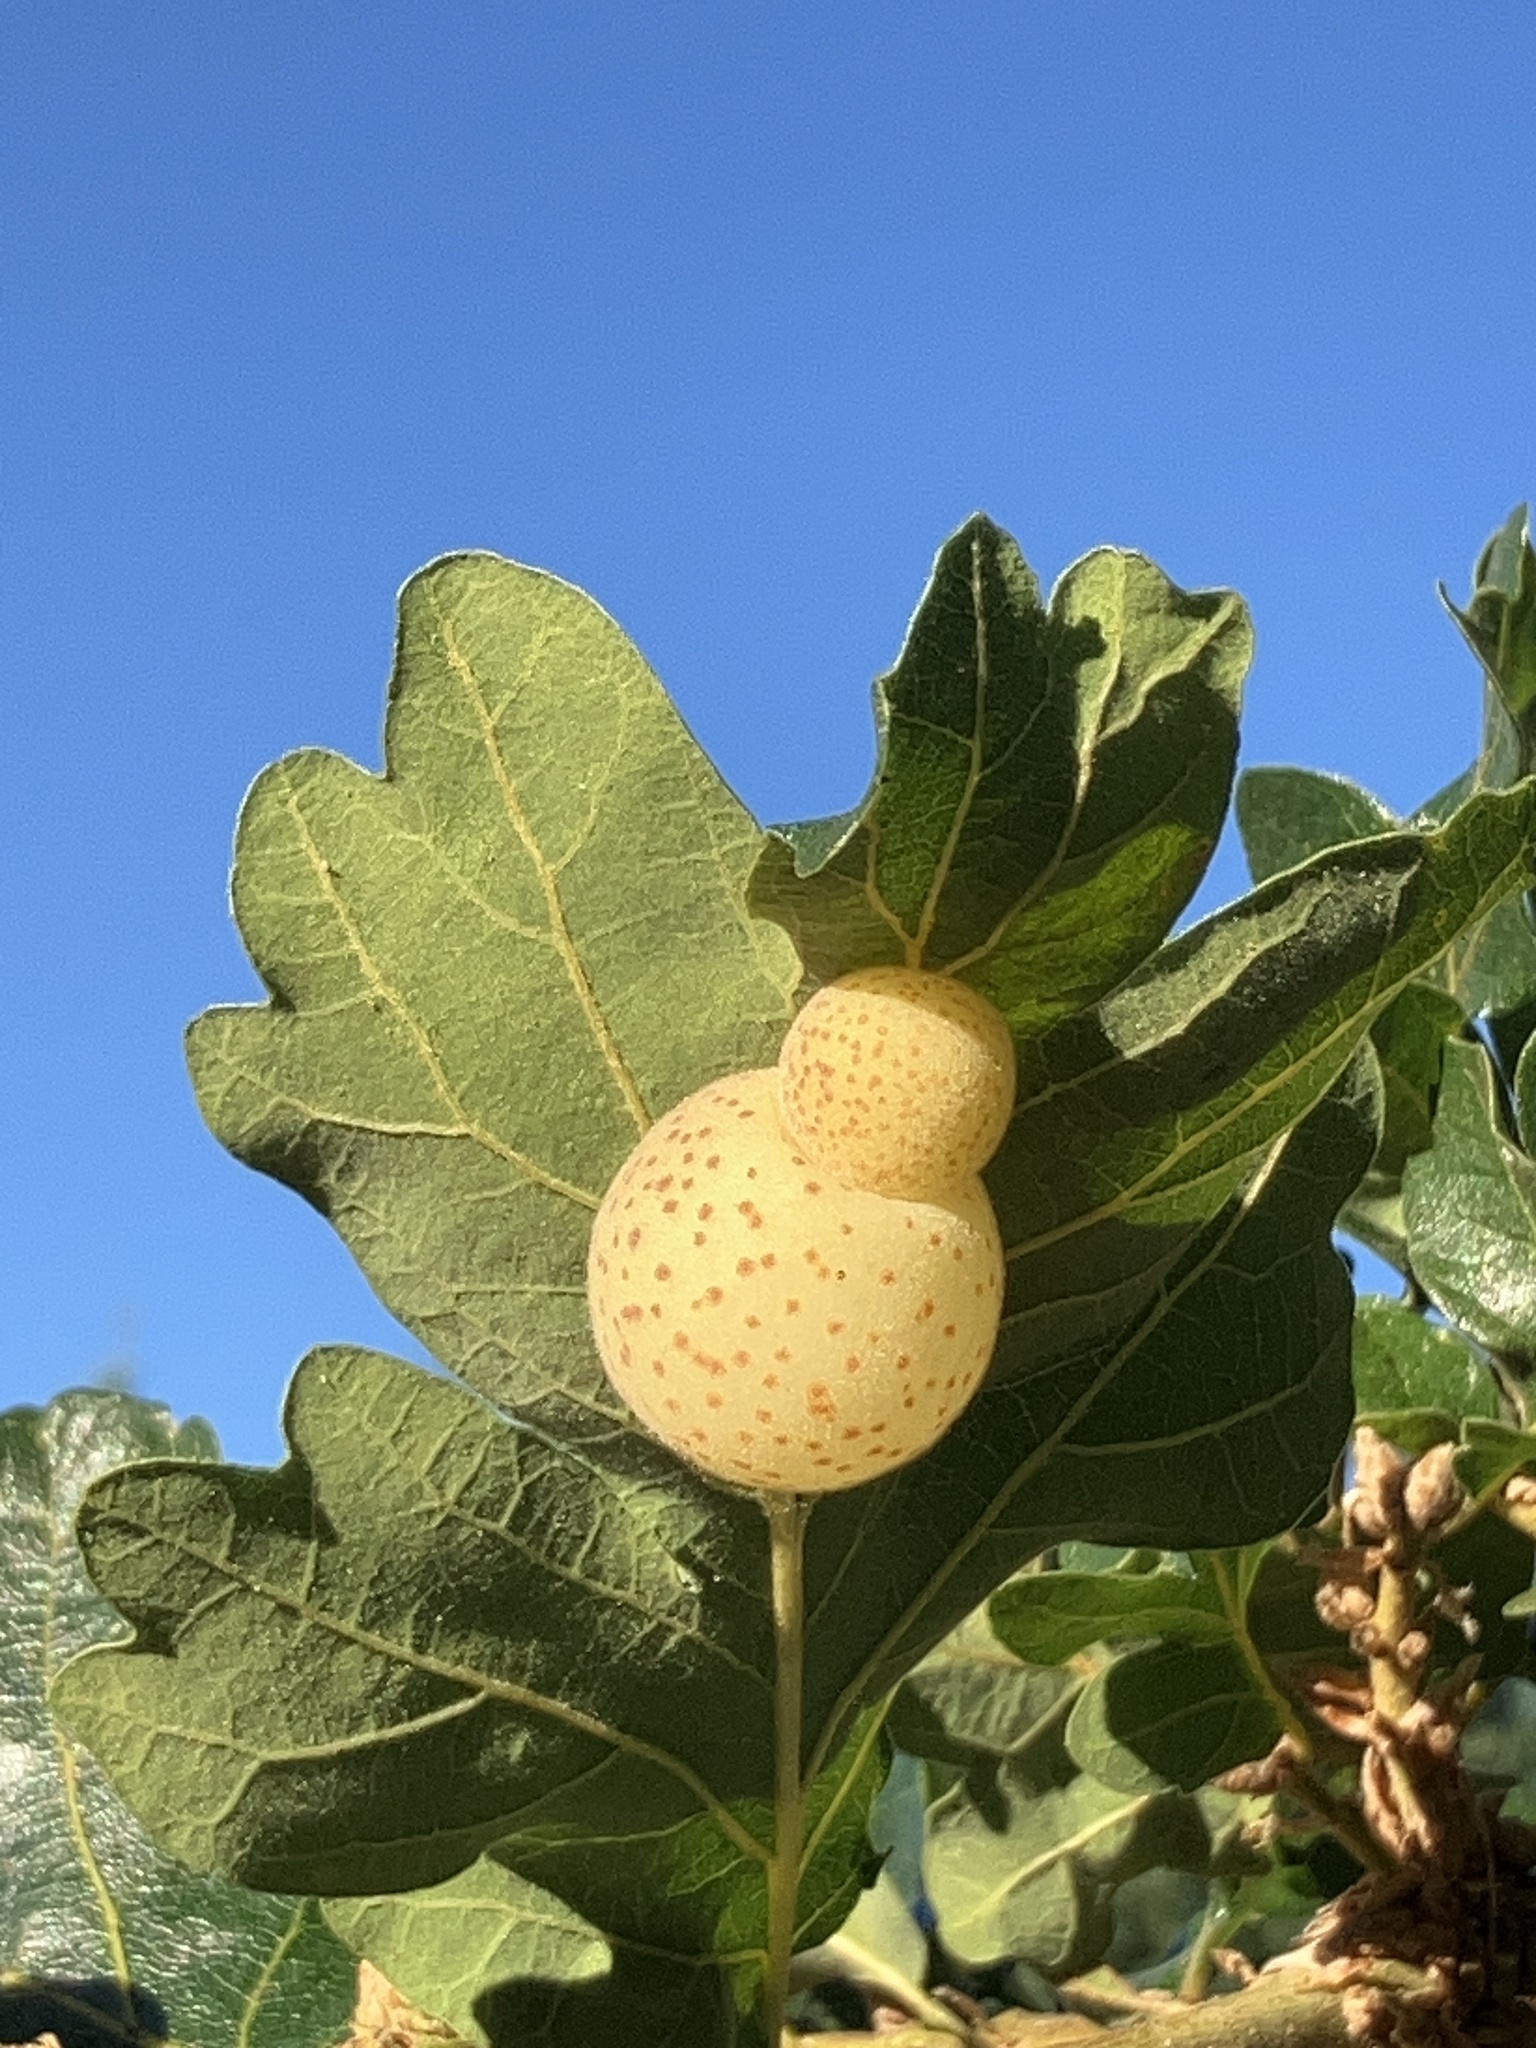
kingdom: Animalia
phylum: Arthropoda
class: Insecta
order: Hymenoptera
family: Cynipidae
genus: Cynips
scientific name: Cynips
